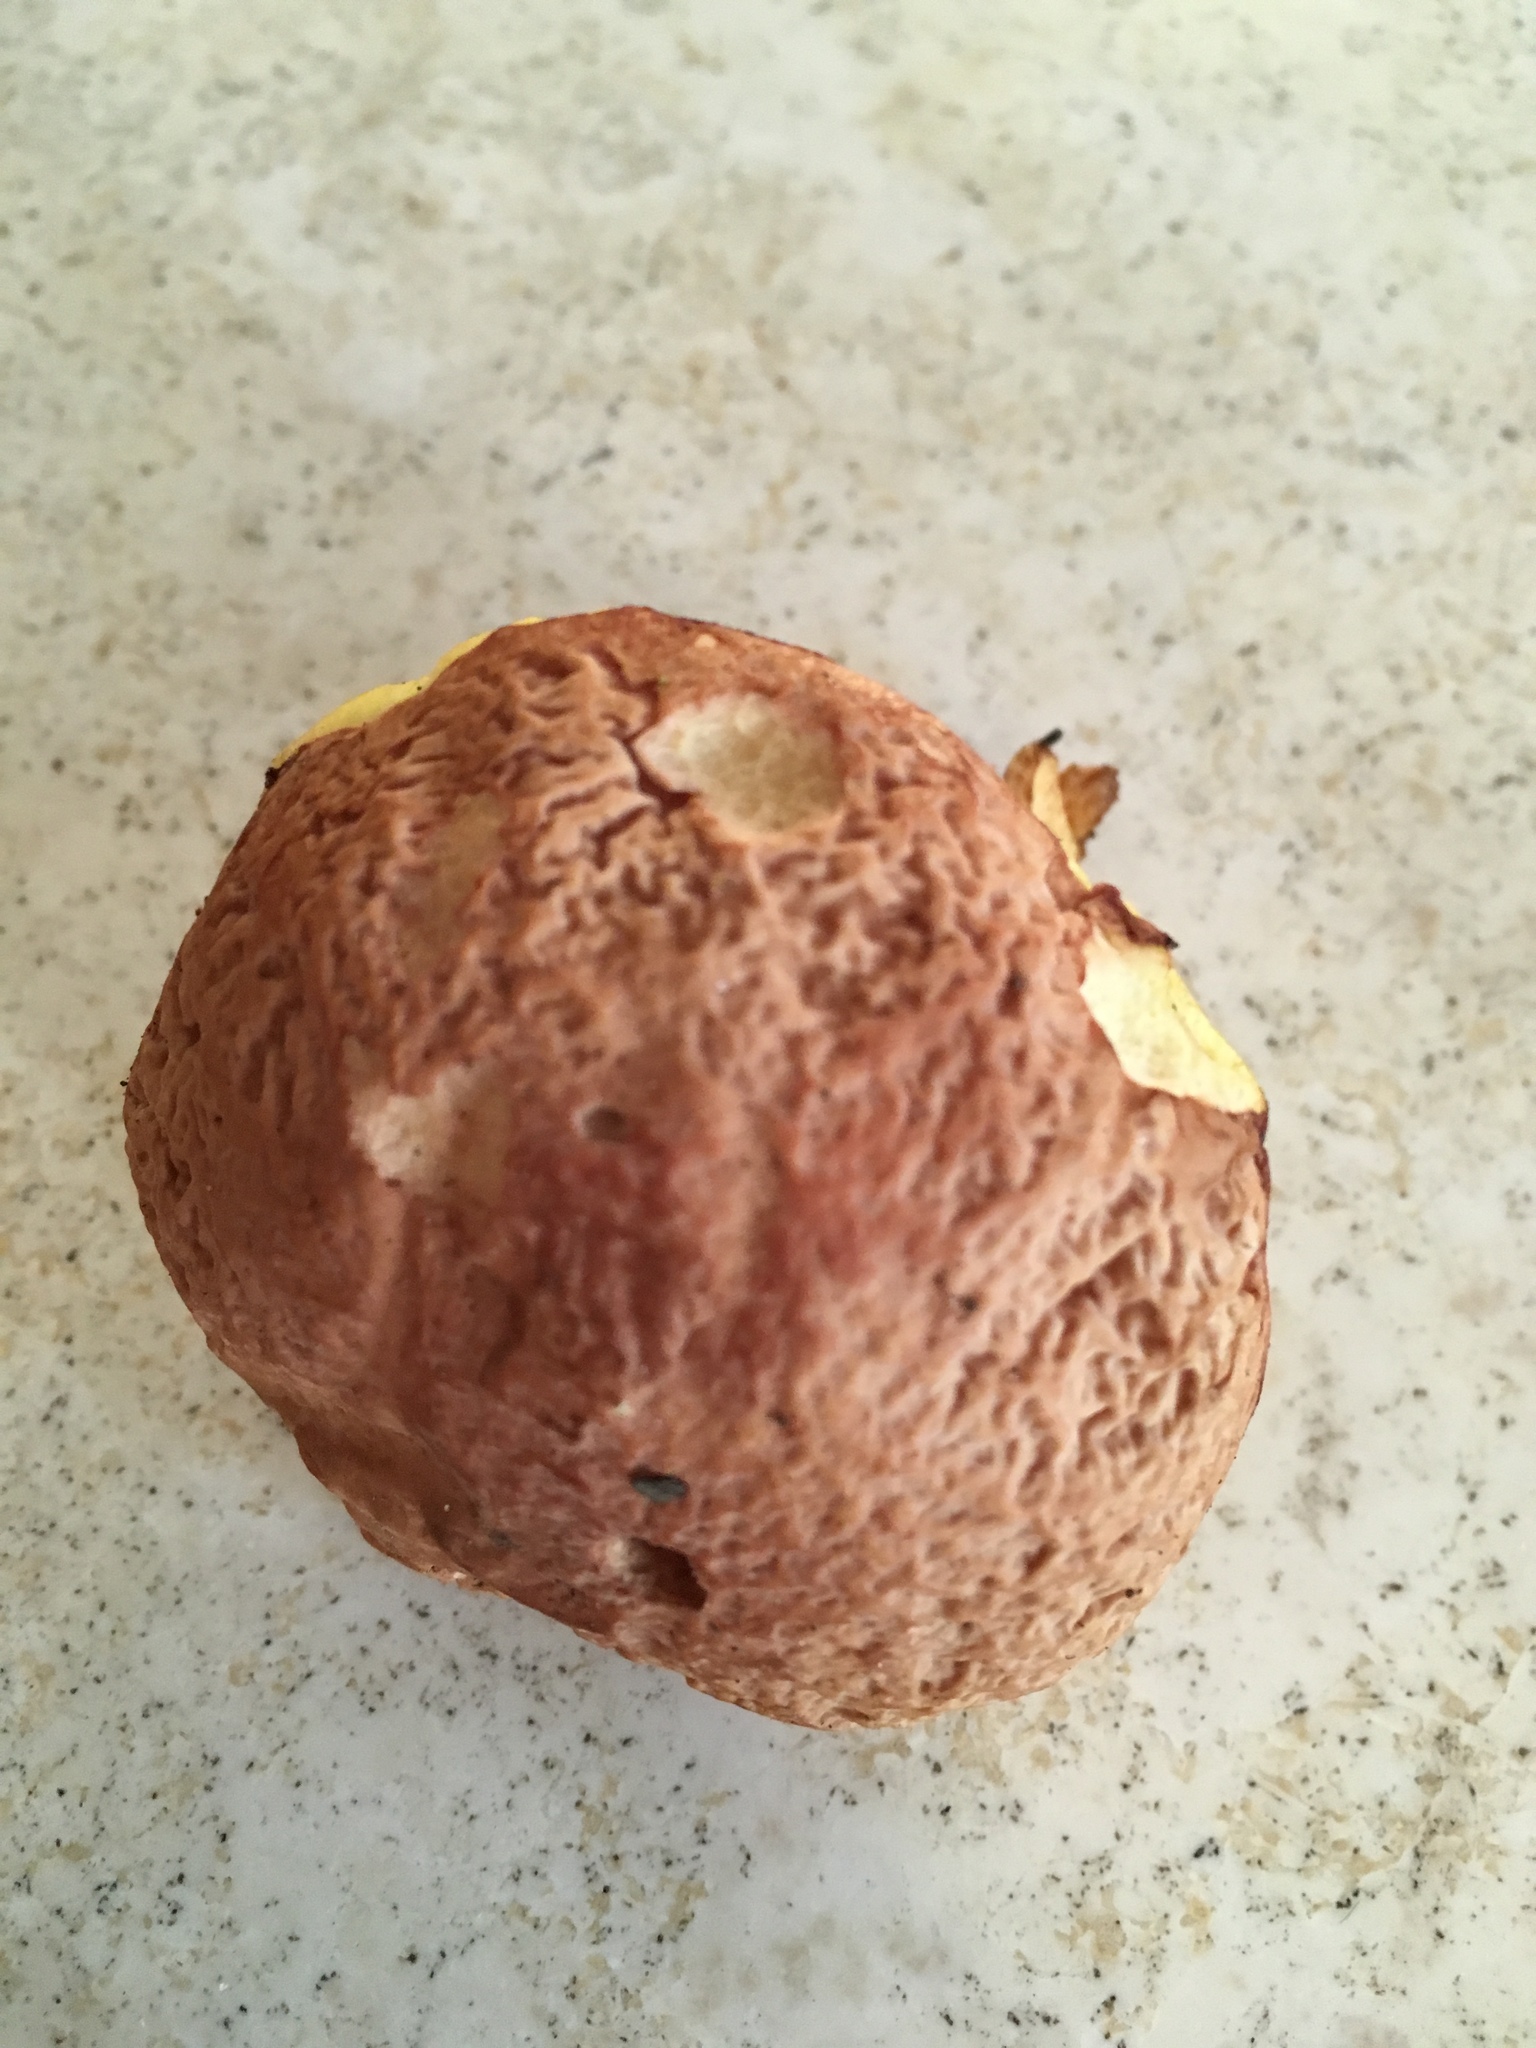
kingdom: Fungi
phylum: Basidiomycota
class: Agaricomycetes
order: Boletales
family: Boletaceae
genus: Hemileccinum
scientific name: Hemileccinum hortonii
